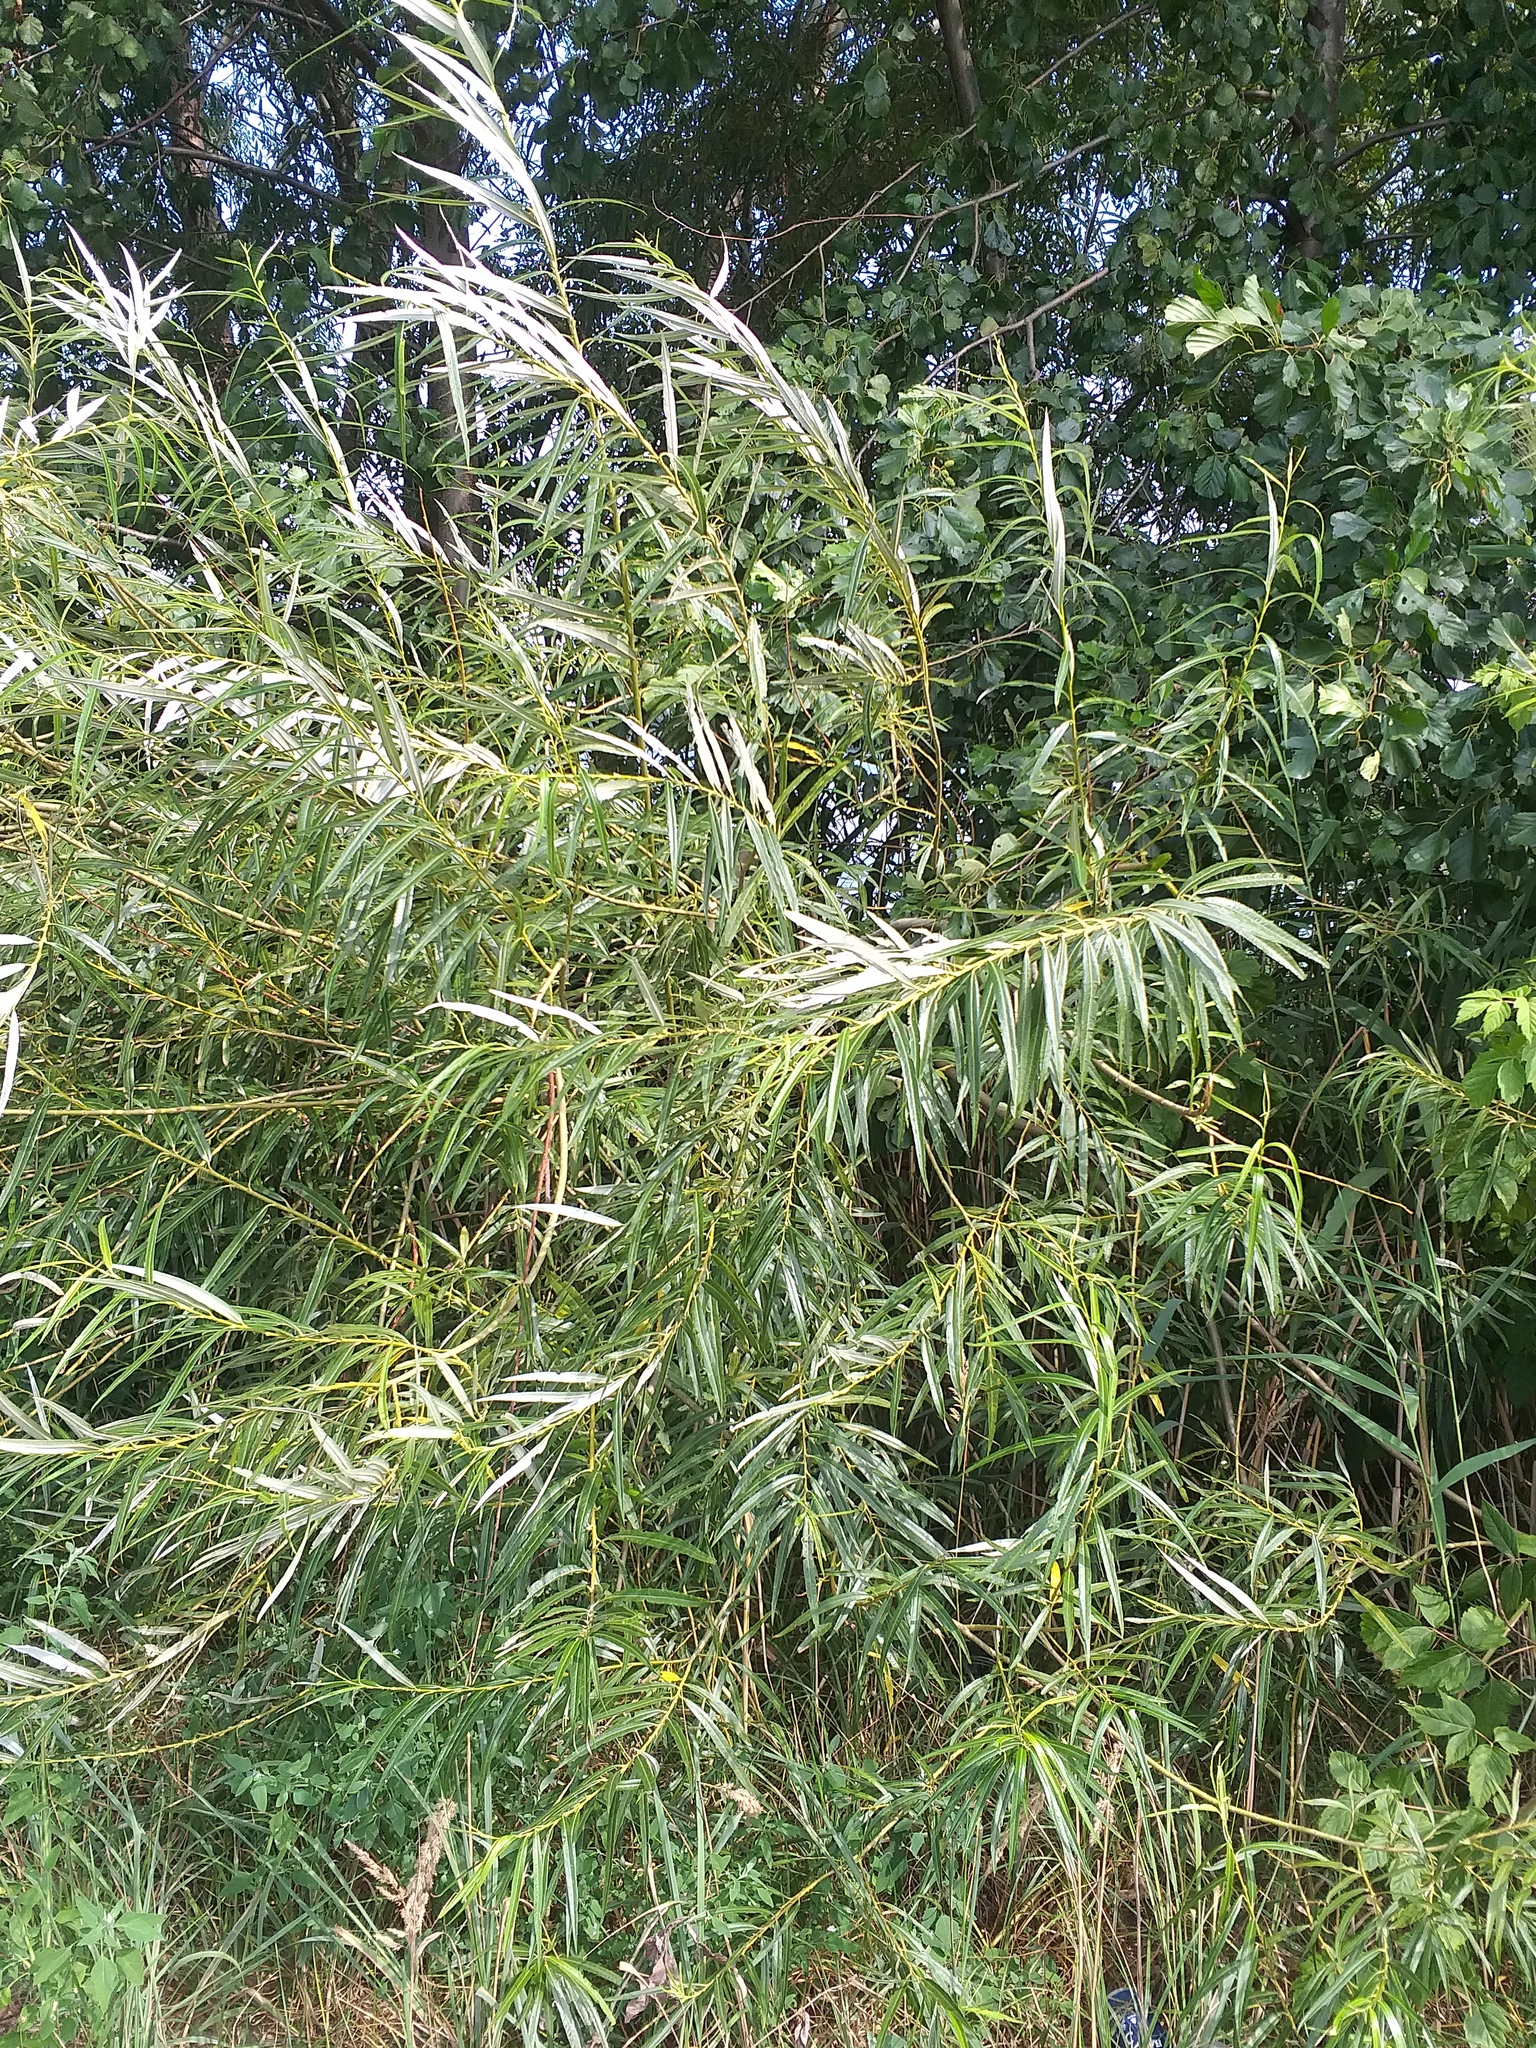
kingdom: Plantae
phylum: Tracheophyta
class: Magnoliopsida
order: Malpighiales
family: Salicaceae
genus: Salix
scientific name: Salix viminalis
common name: Osier
